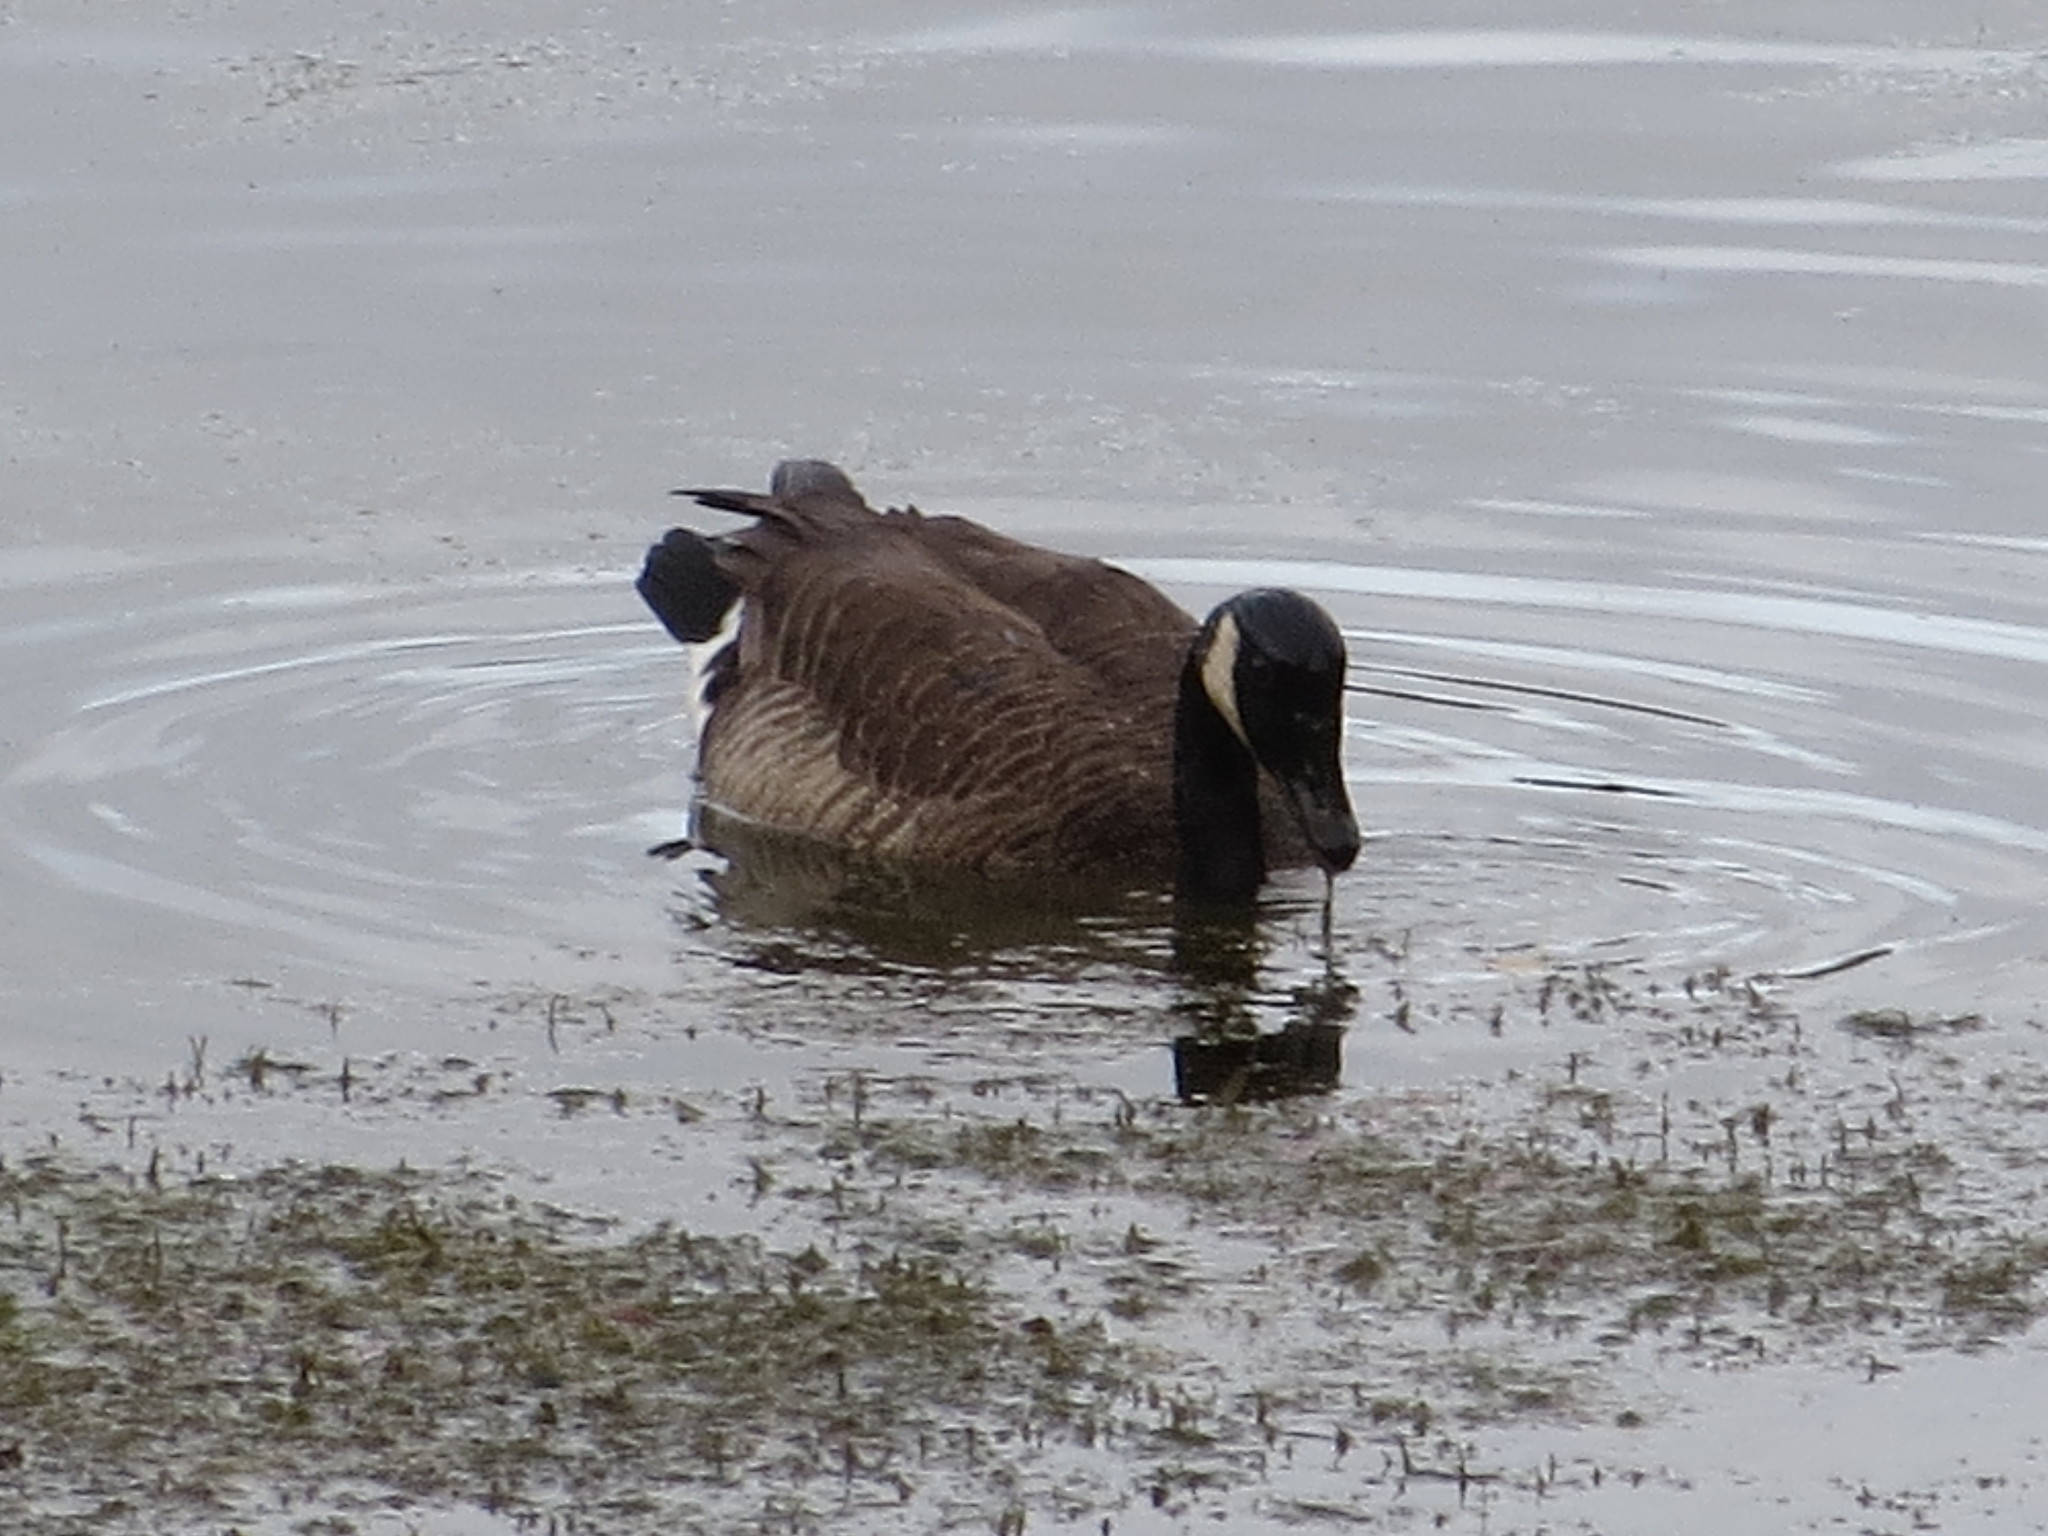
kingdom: Animalia
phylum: Chordata
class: Aves
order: Anseriformes
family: Anatidae
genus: Branta
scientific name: Branta canadensis
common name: Canada goose
